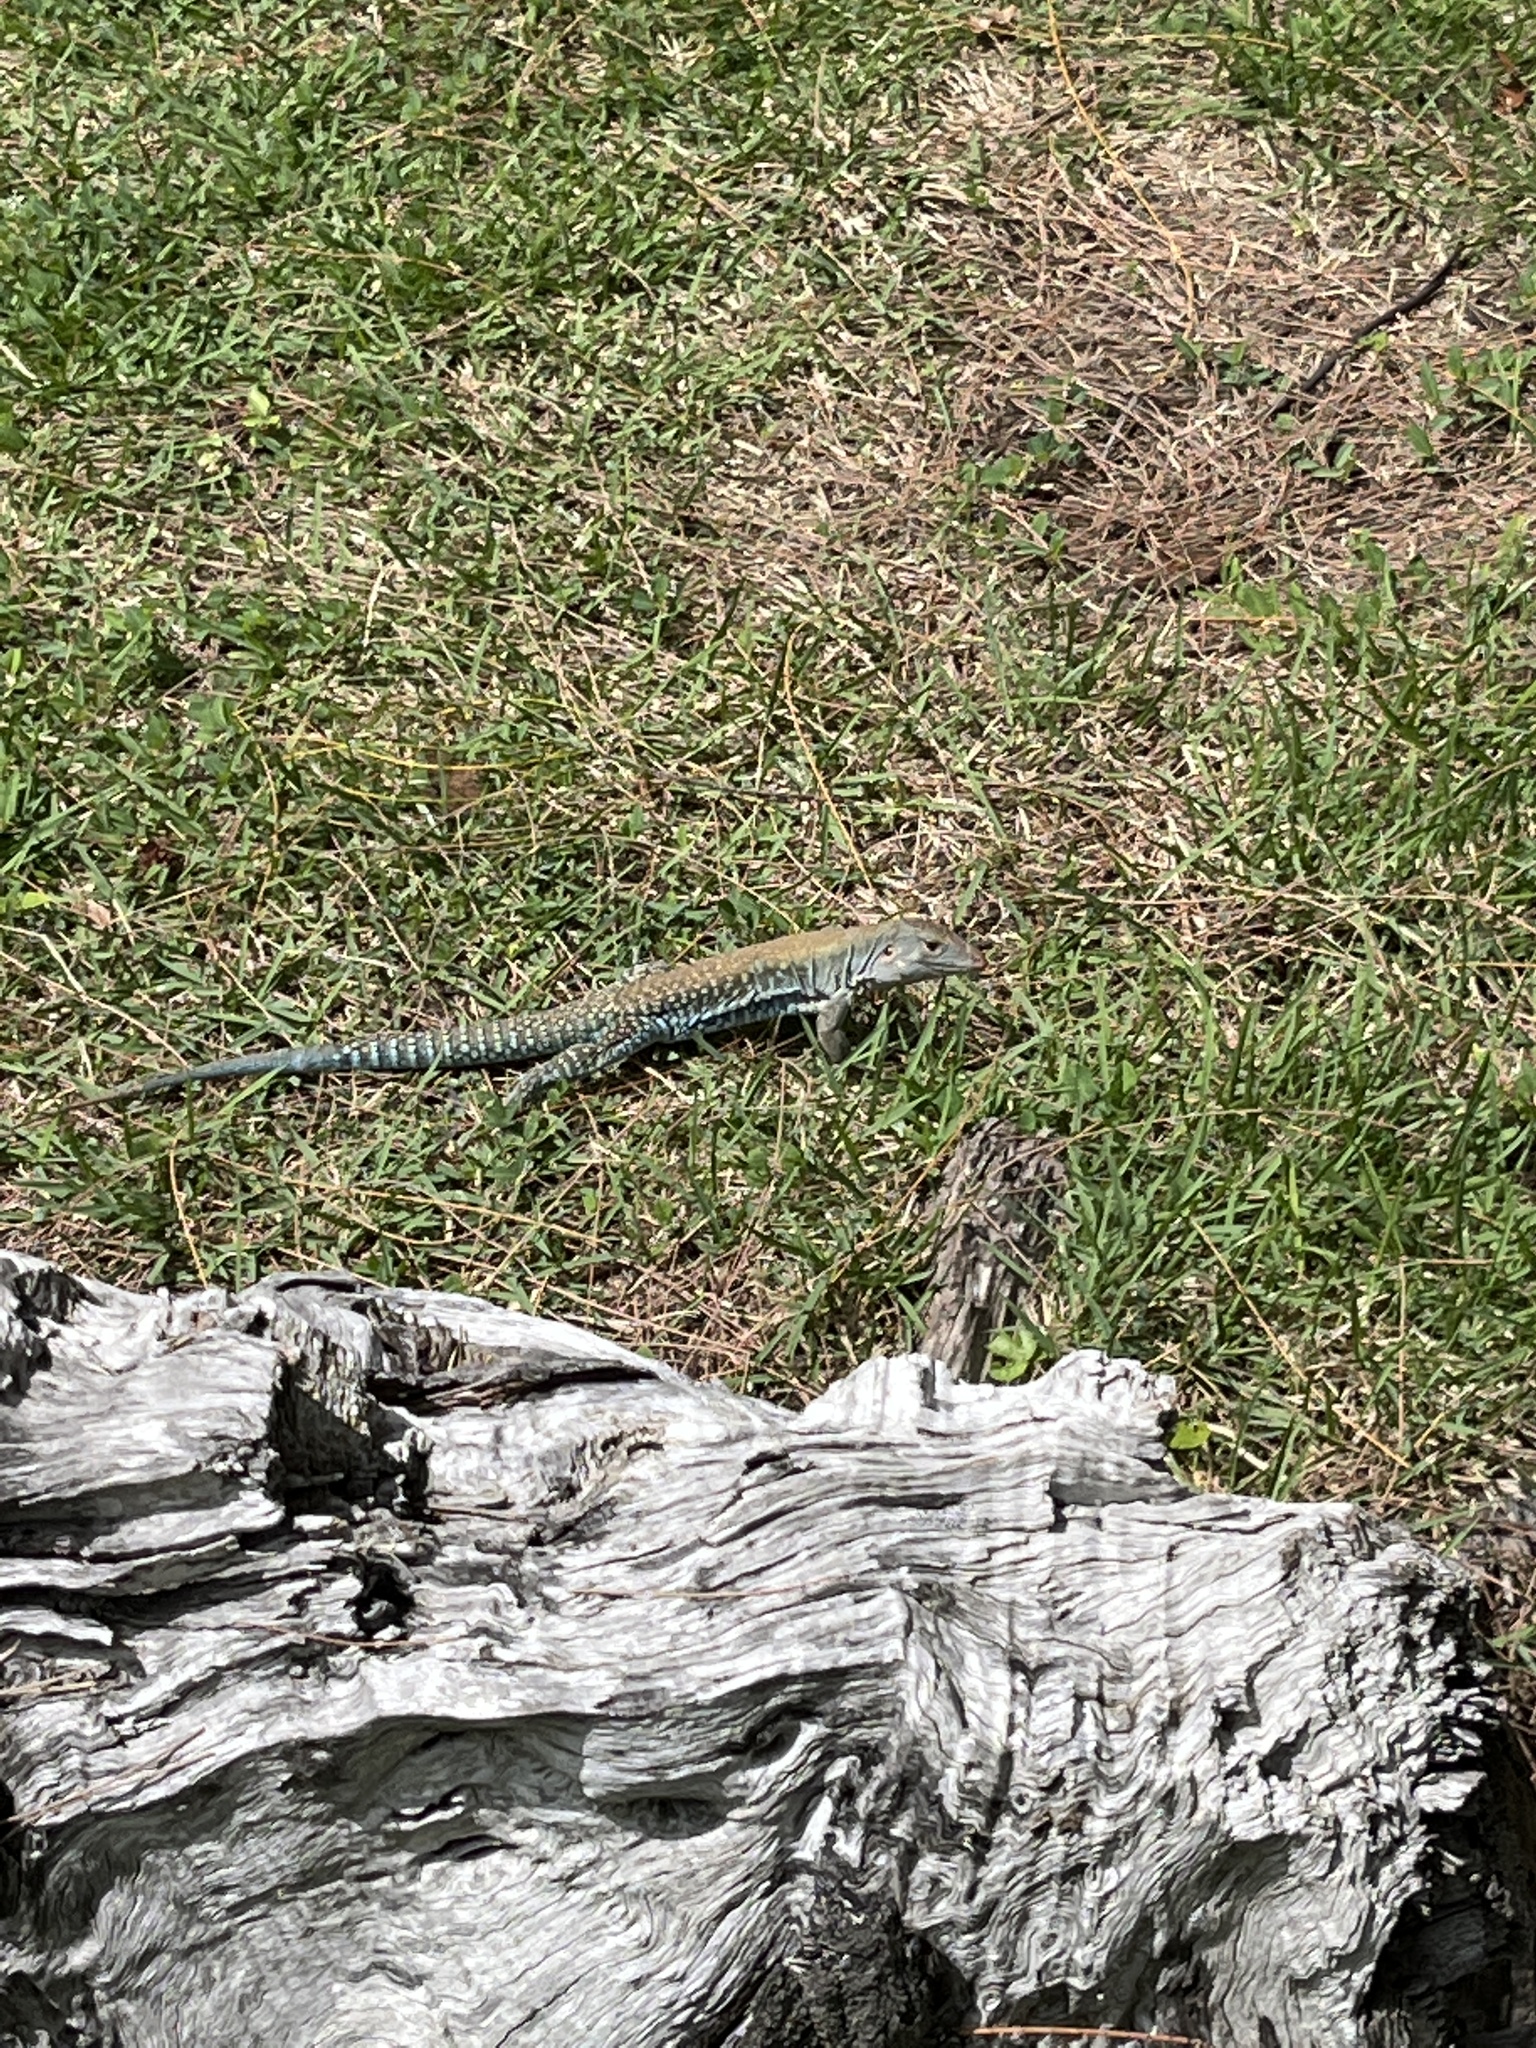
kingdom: Animalia
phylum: Chordata
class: Squamata
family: Teiidae
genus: Pholidoscelis
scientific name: Pholidoscelis exsul
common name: Common puerto rican ameiva
